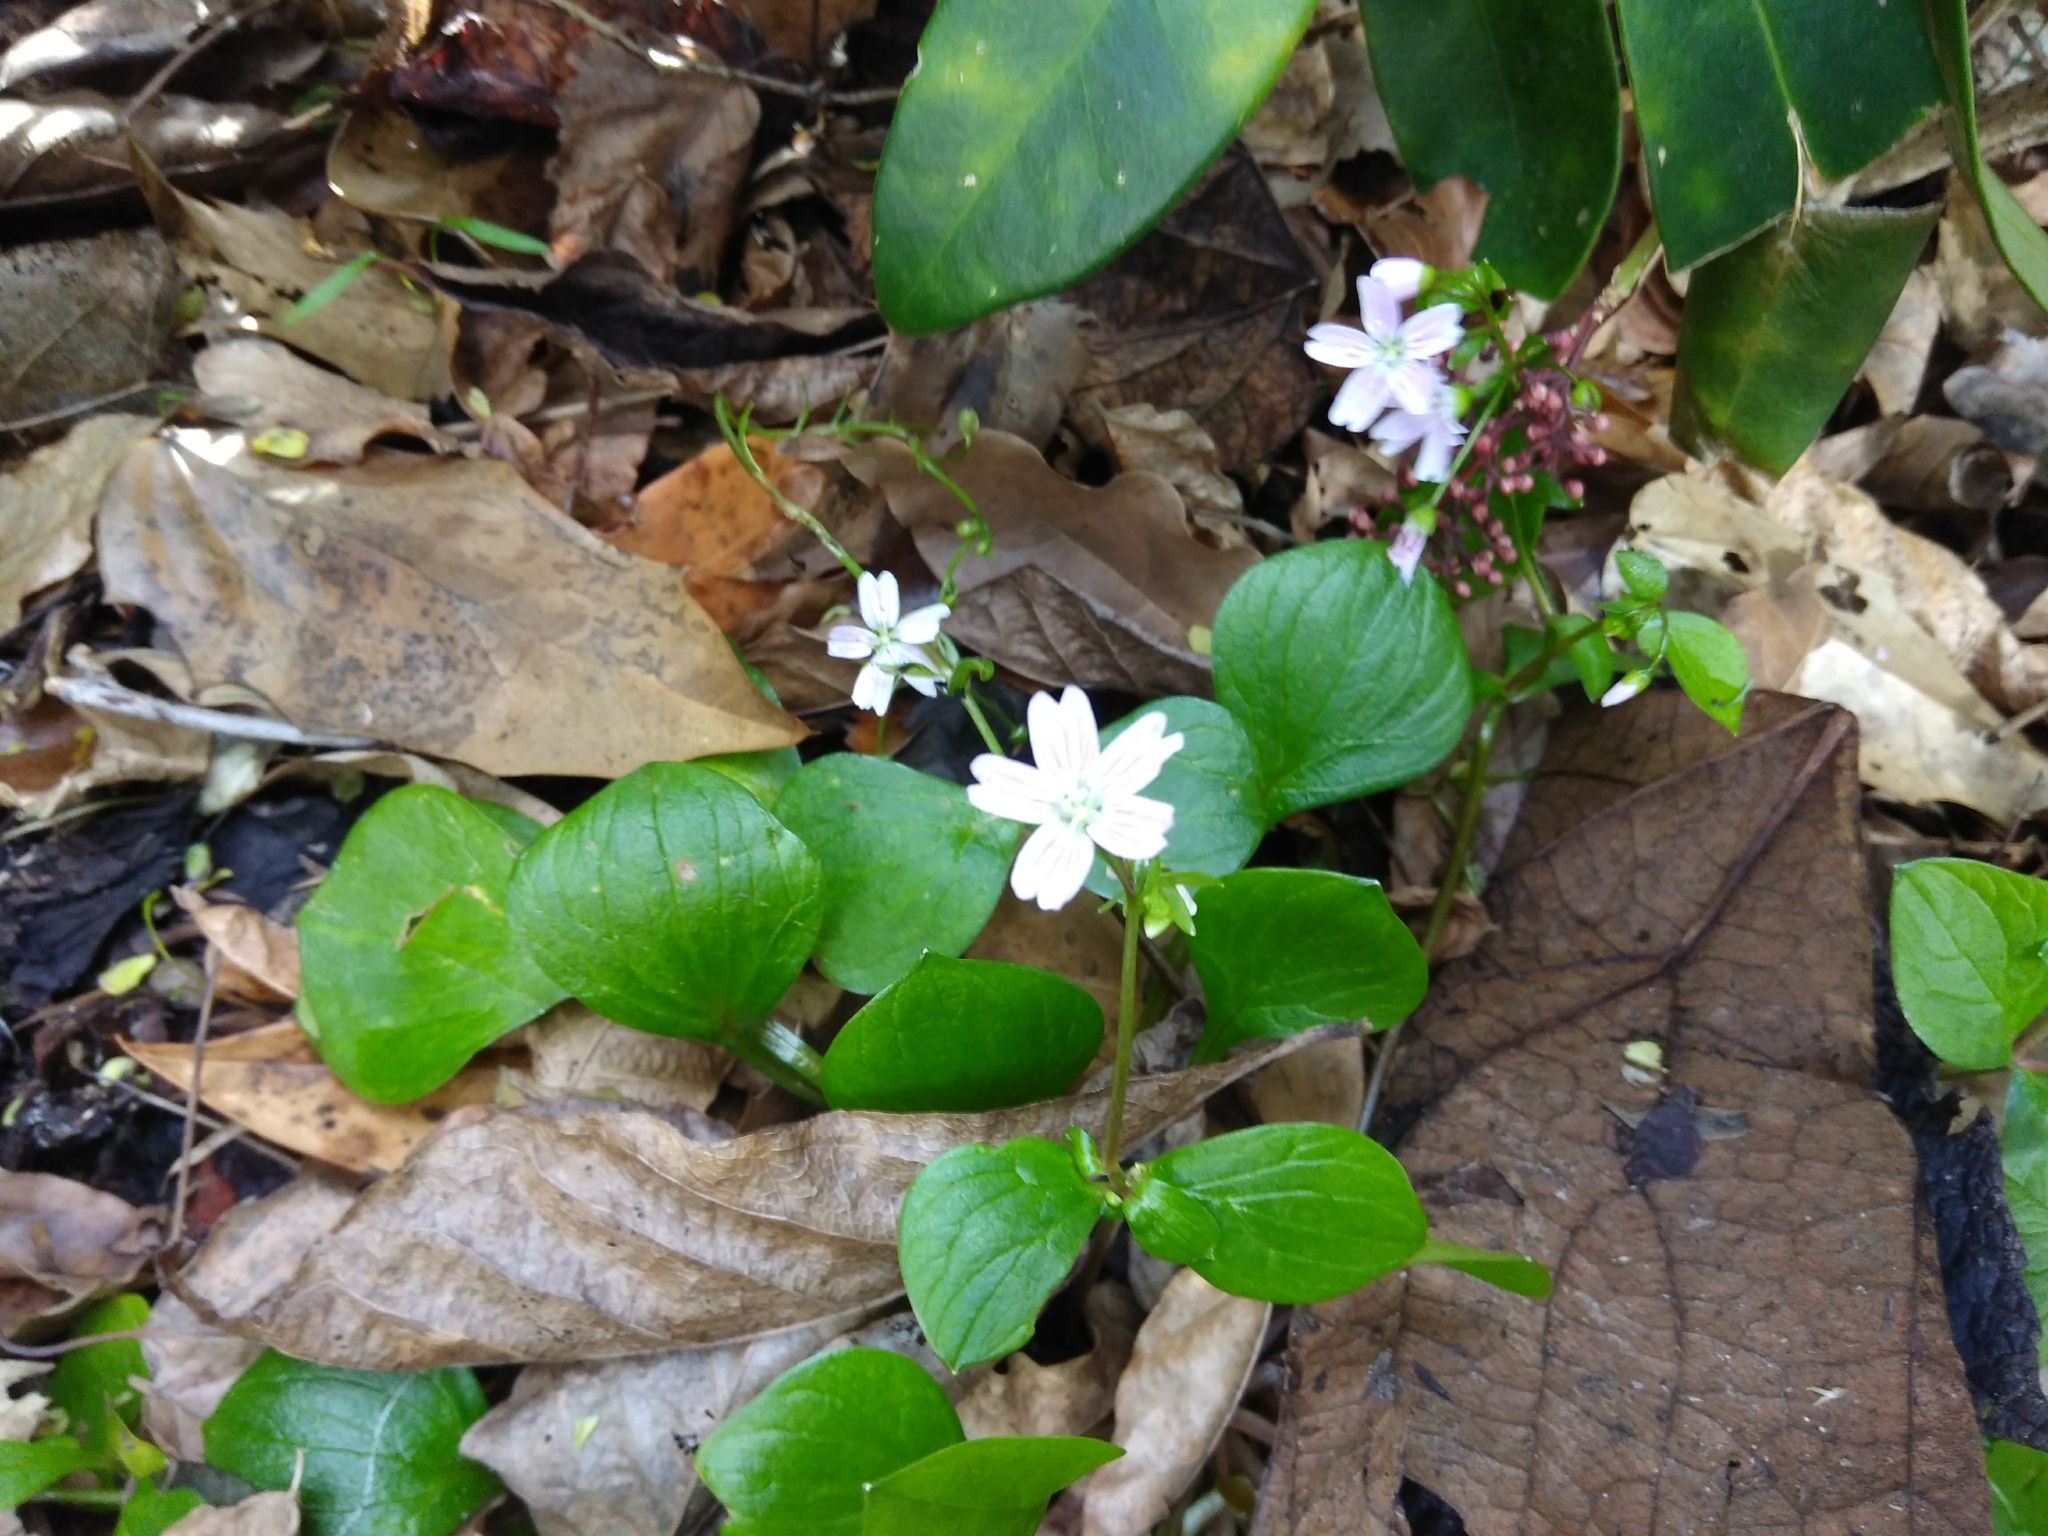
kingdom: Plantae
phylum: Tracheophyta
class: Magnoliopsida
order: Caryophyllales
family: Montiaceae
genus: Claytonia
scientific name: Claytonia sibirica
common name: Pink purslane
